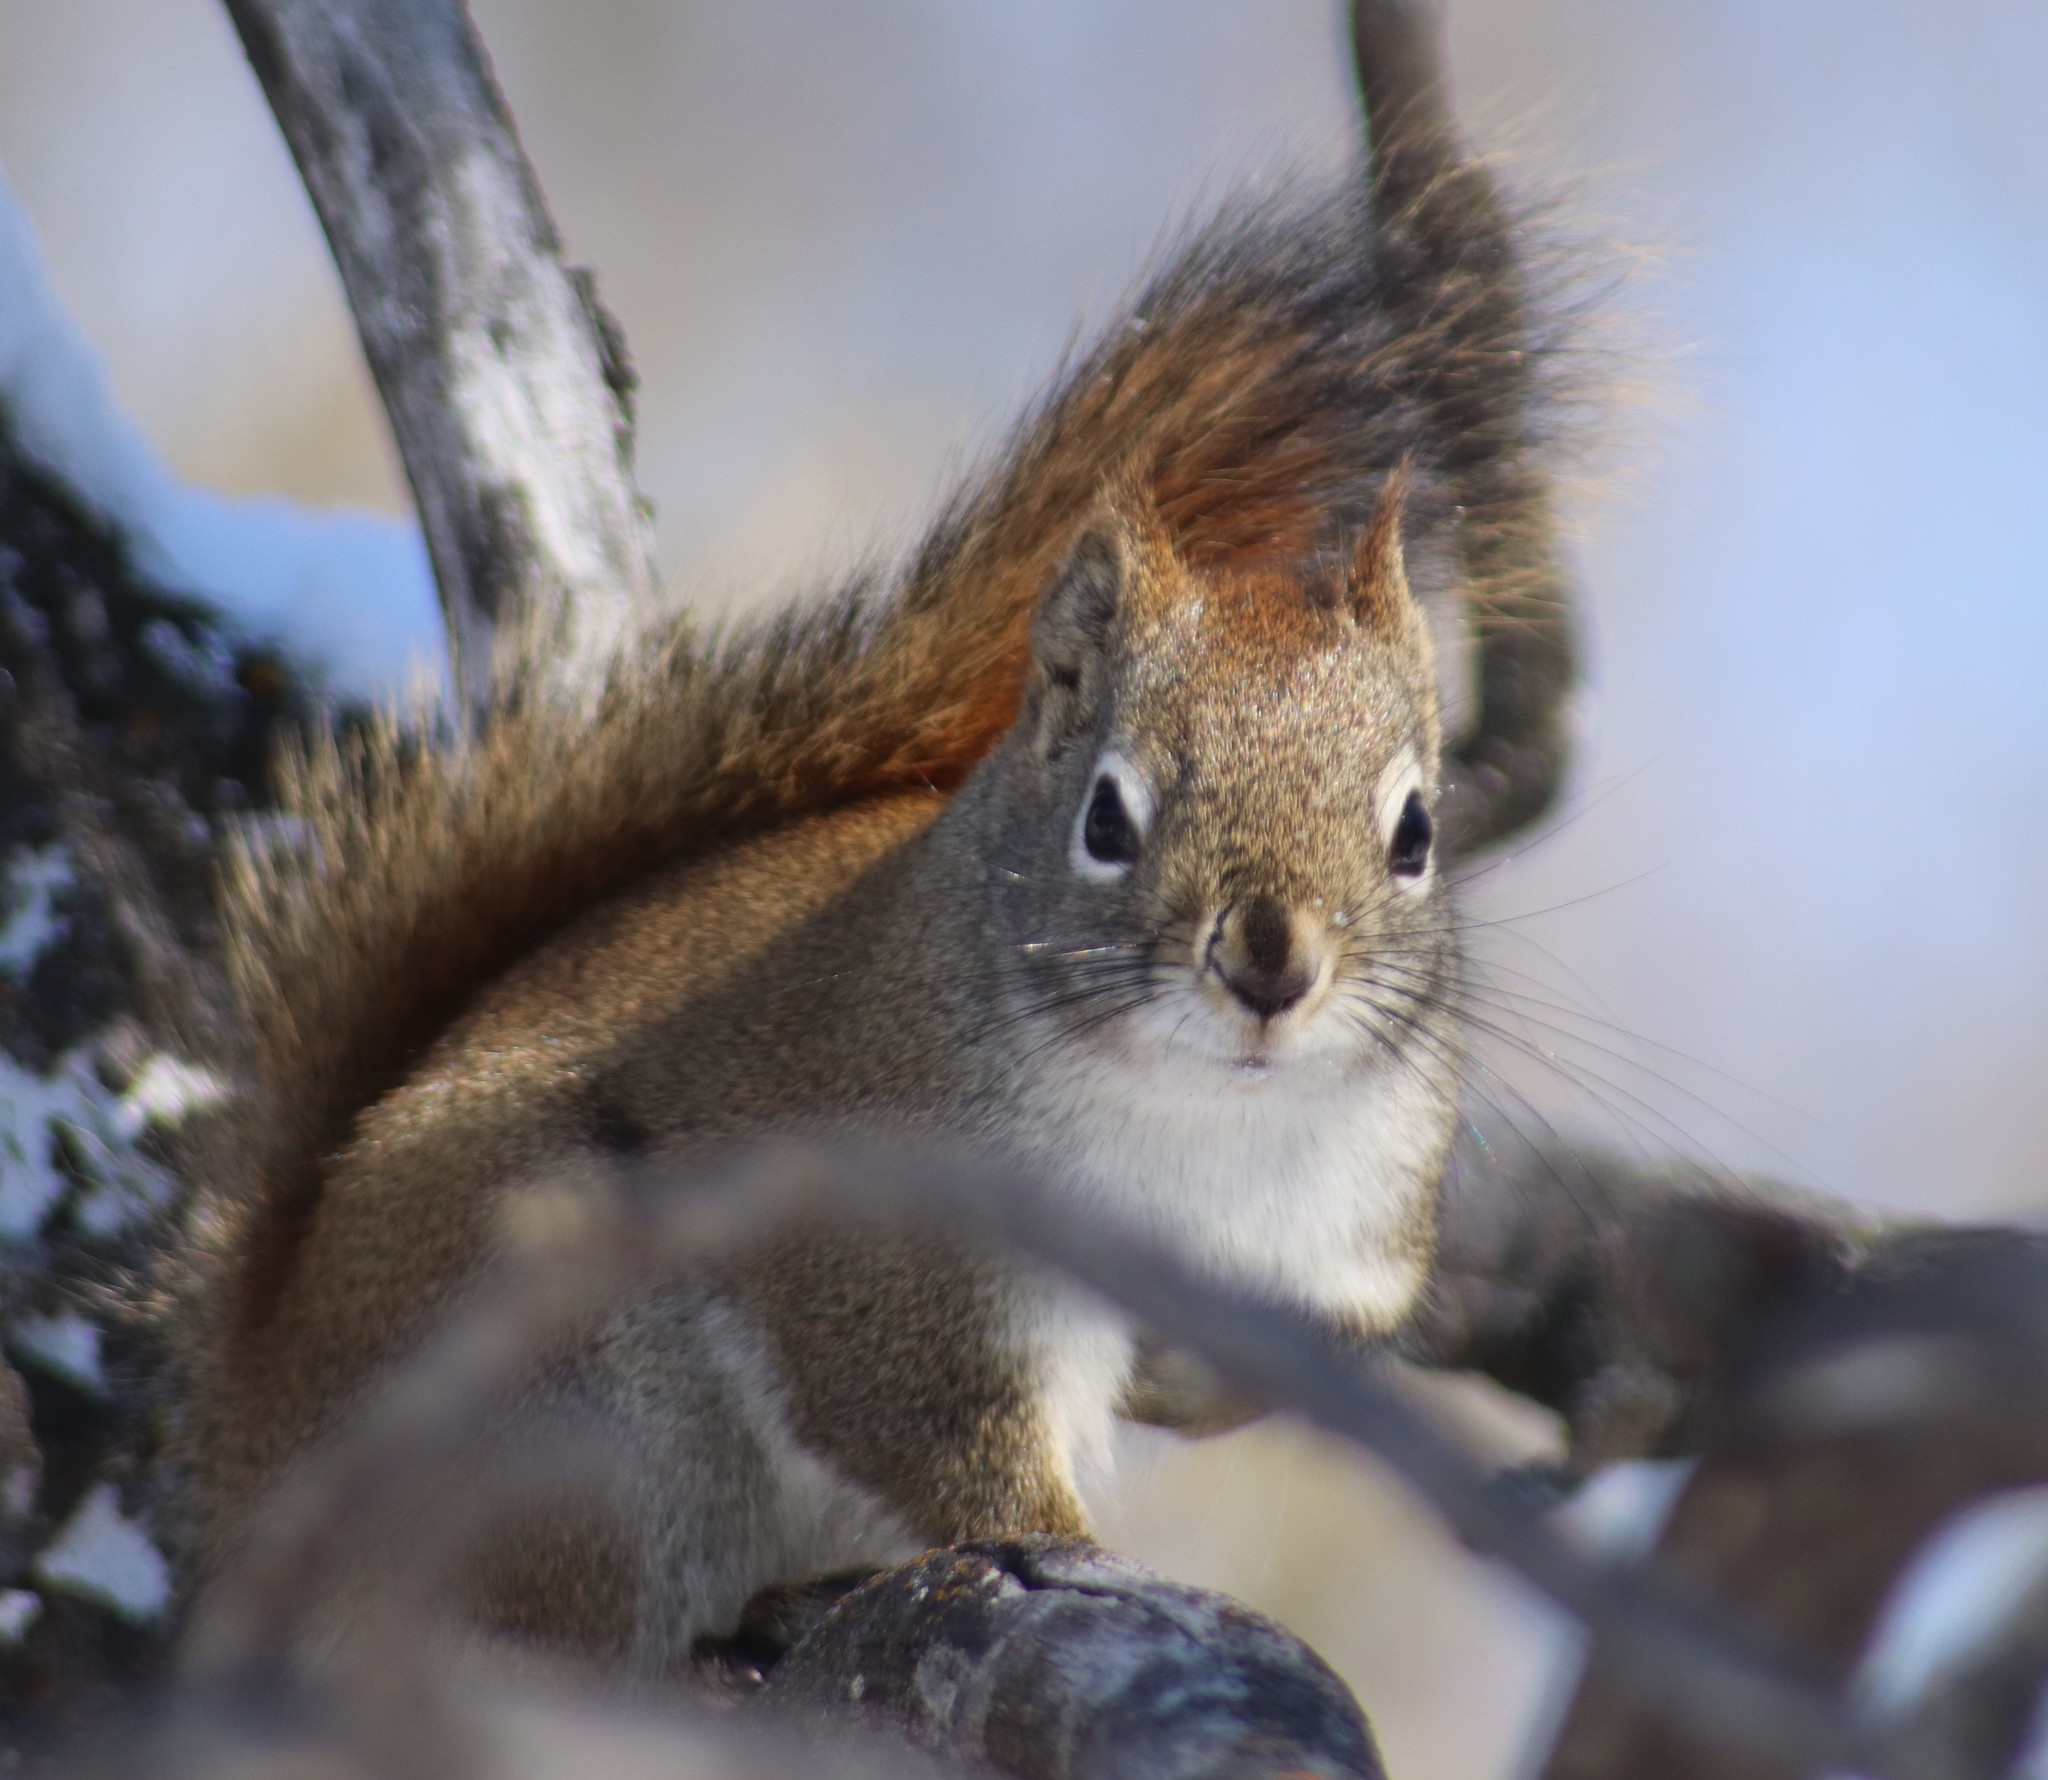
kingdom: Animalia
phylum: Chordata
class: Mammalia
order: Rodentia
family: Sciuridae
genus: Tamiasciurus
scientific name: Tamiasciurus hudsonicus
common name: Red squirrel
